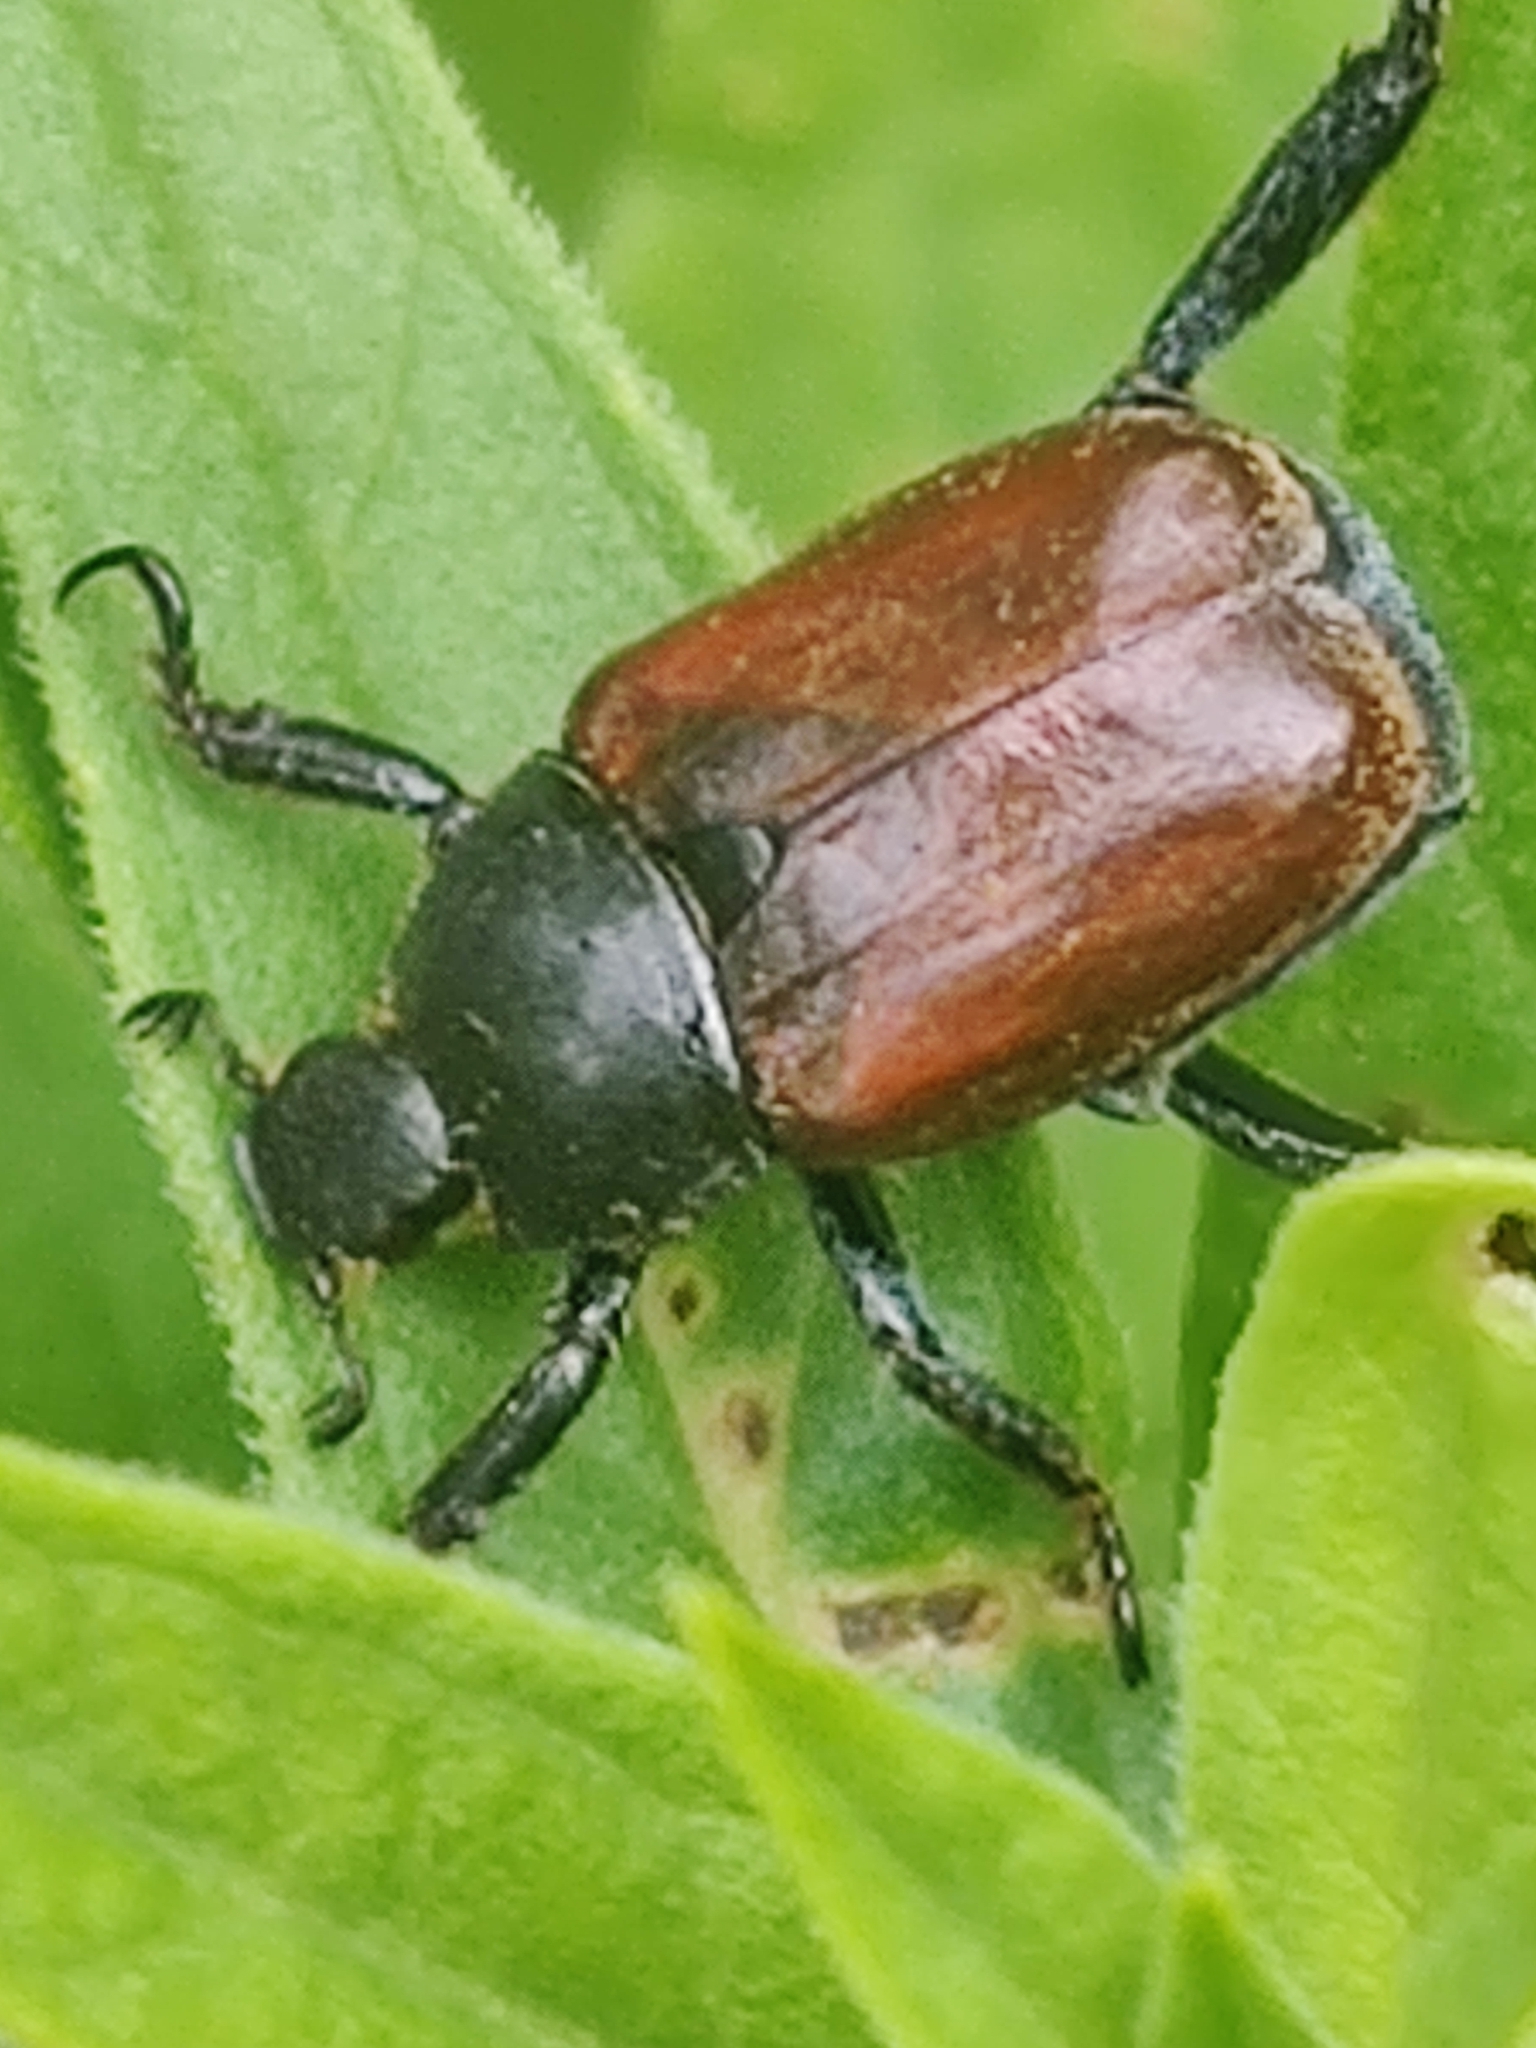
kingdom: Animalia
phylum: Arthropoda
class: Insecta
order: Coleoptera
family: Scarabaeidae
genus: Hoplia
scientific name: Hoplia philanthus
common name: Welsh chafer
